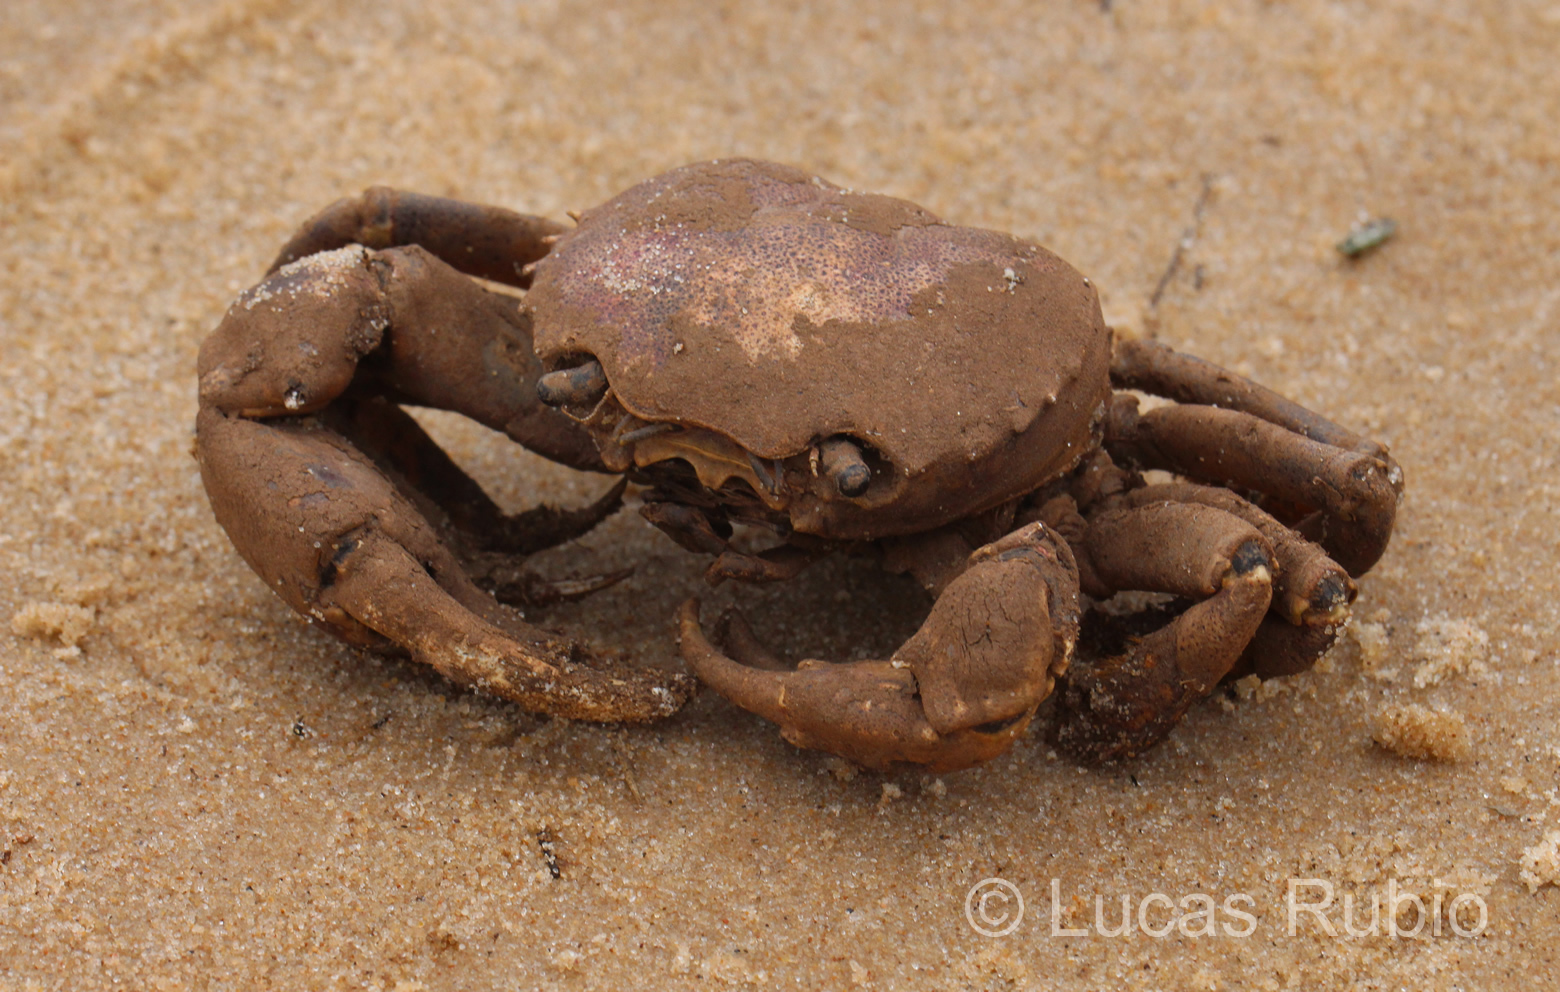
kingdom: Animalia
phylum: Arthropoda
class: Malacostraca
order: Decapoda
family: Trichodactylidae
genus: Zilchiopsis
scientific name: Zilchiopsis collastinensis
